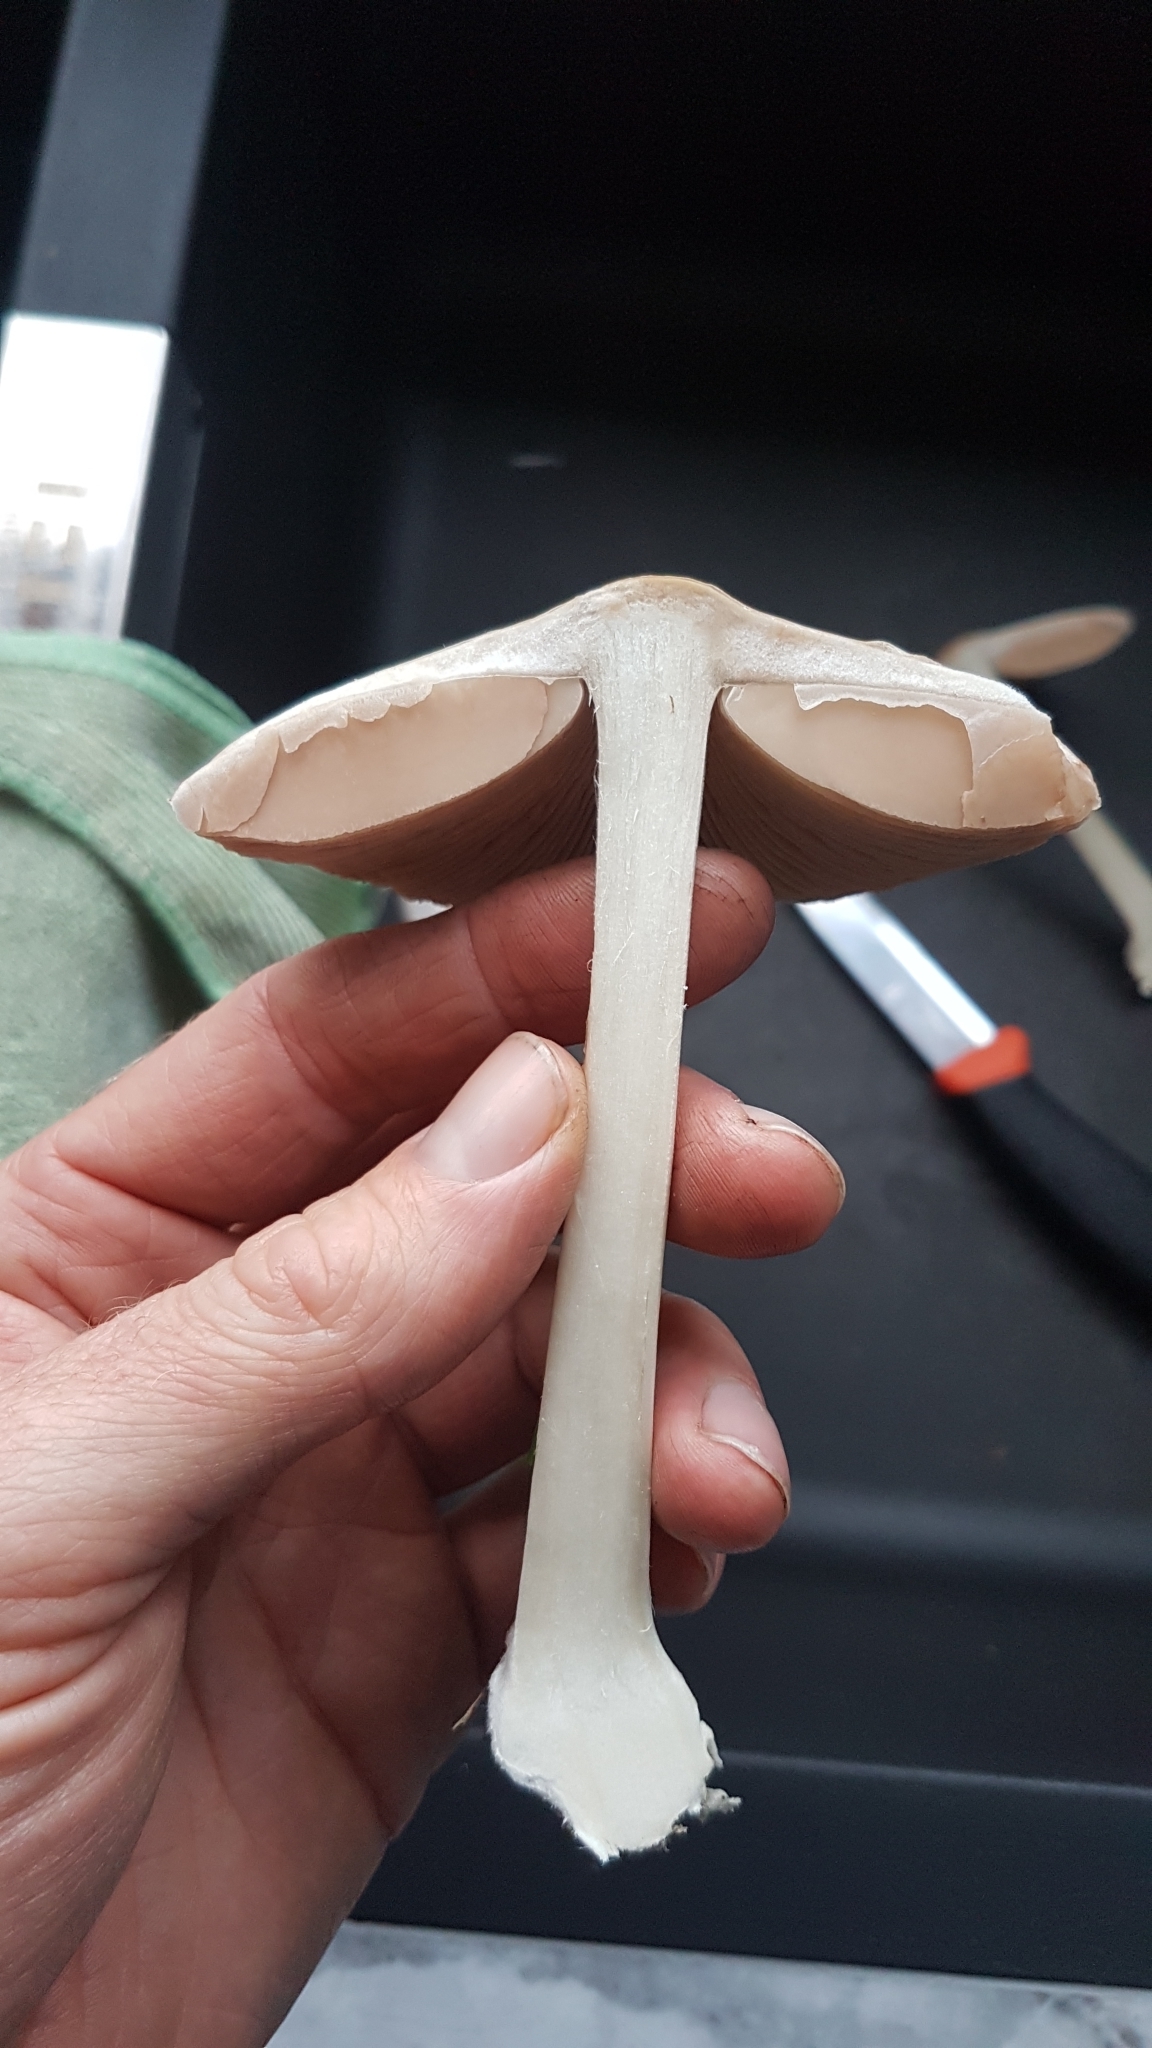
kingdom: Fungi
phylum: Basidiomycota
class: Agaricomycetes
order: Agaricales
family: Pluteaceae
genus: Volvopluteus
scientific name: Volvopluteus gloiocephalus
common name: Stubble rosegill
